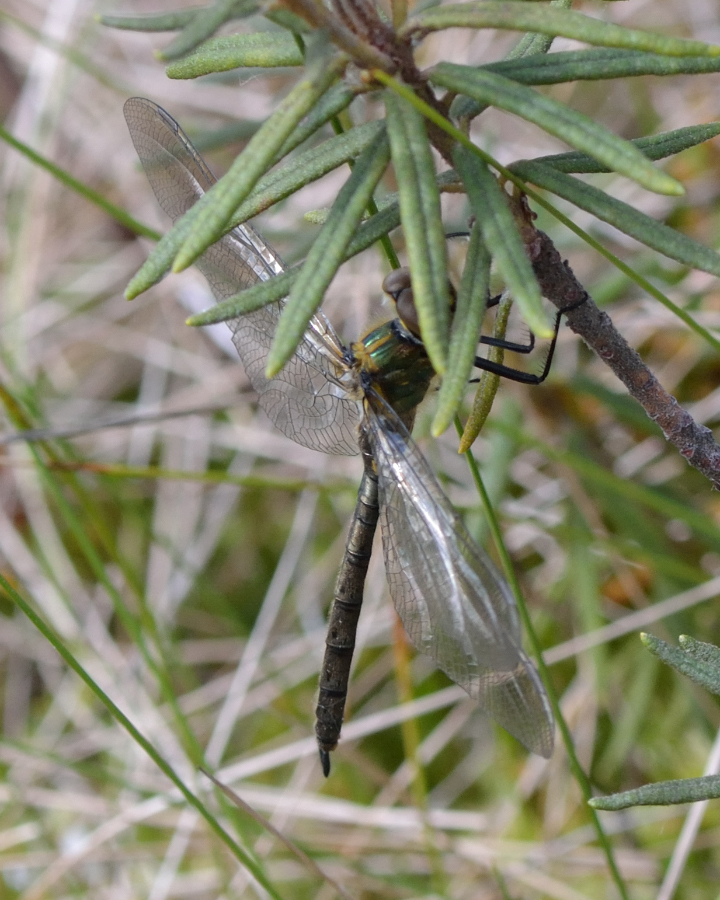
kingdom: Animalia
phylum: Arthropoda
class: Insecta
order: Odonata
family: Corduliidae
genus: Cordulia
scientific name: Cordulia aenea
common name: Downy emerald
